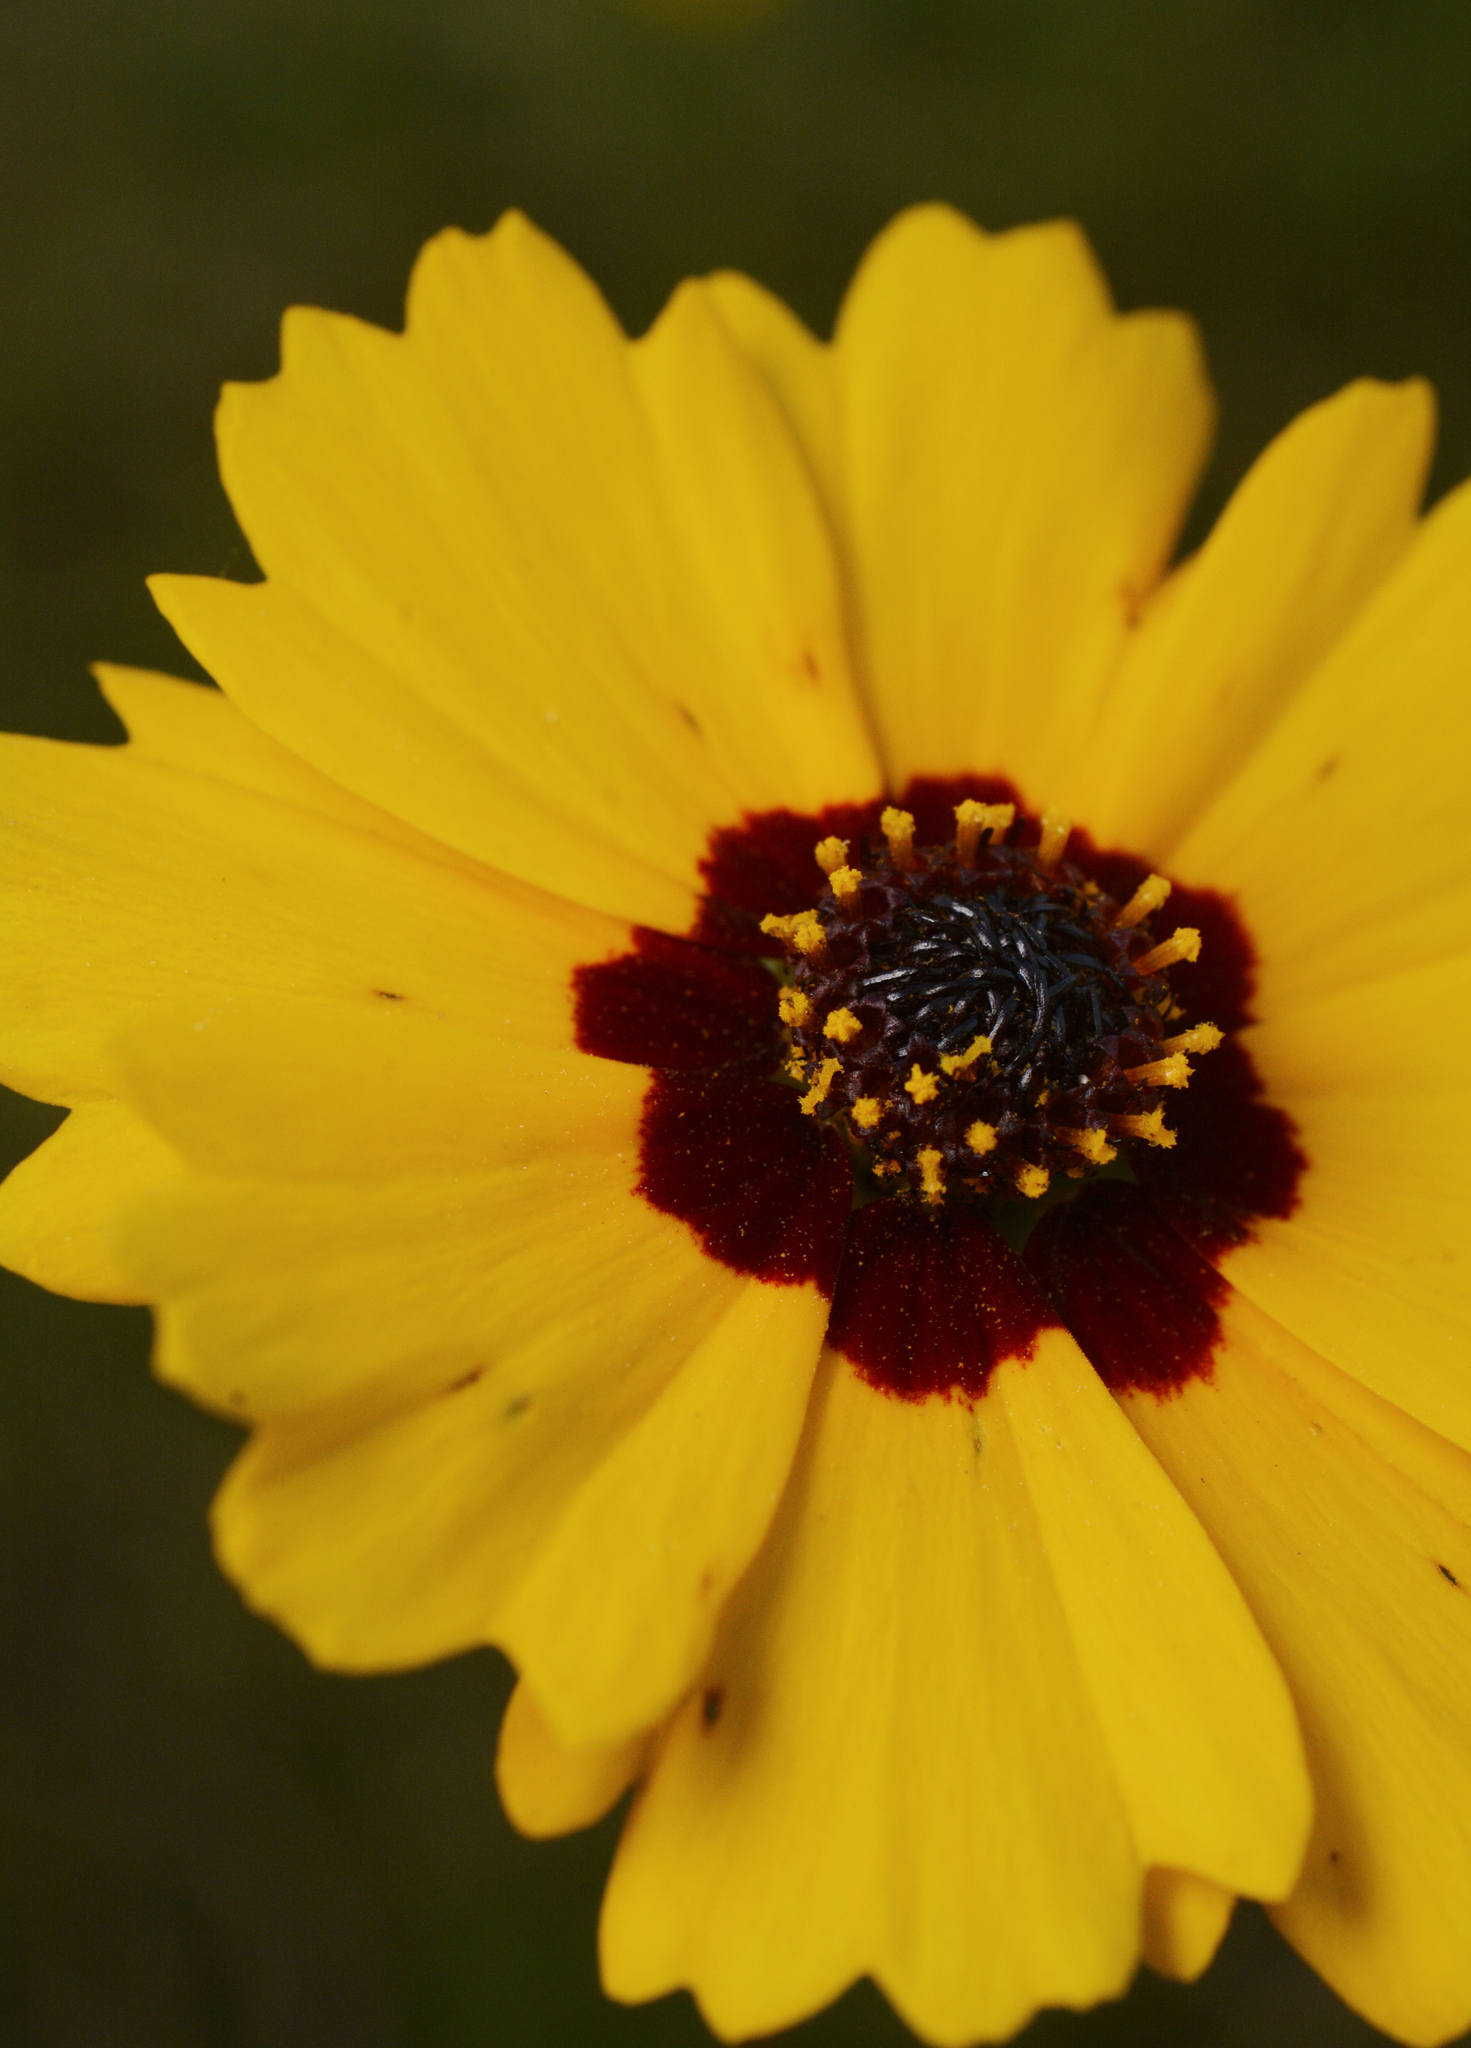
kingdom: Plantae
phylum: Tracheophyta
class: Magnoliopsida
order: Asterales
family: Asteraceae
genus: Coreopsis
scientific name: Coreopsis basalis
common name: Golden-mane coreopsis
